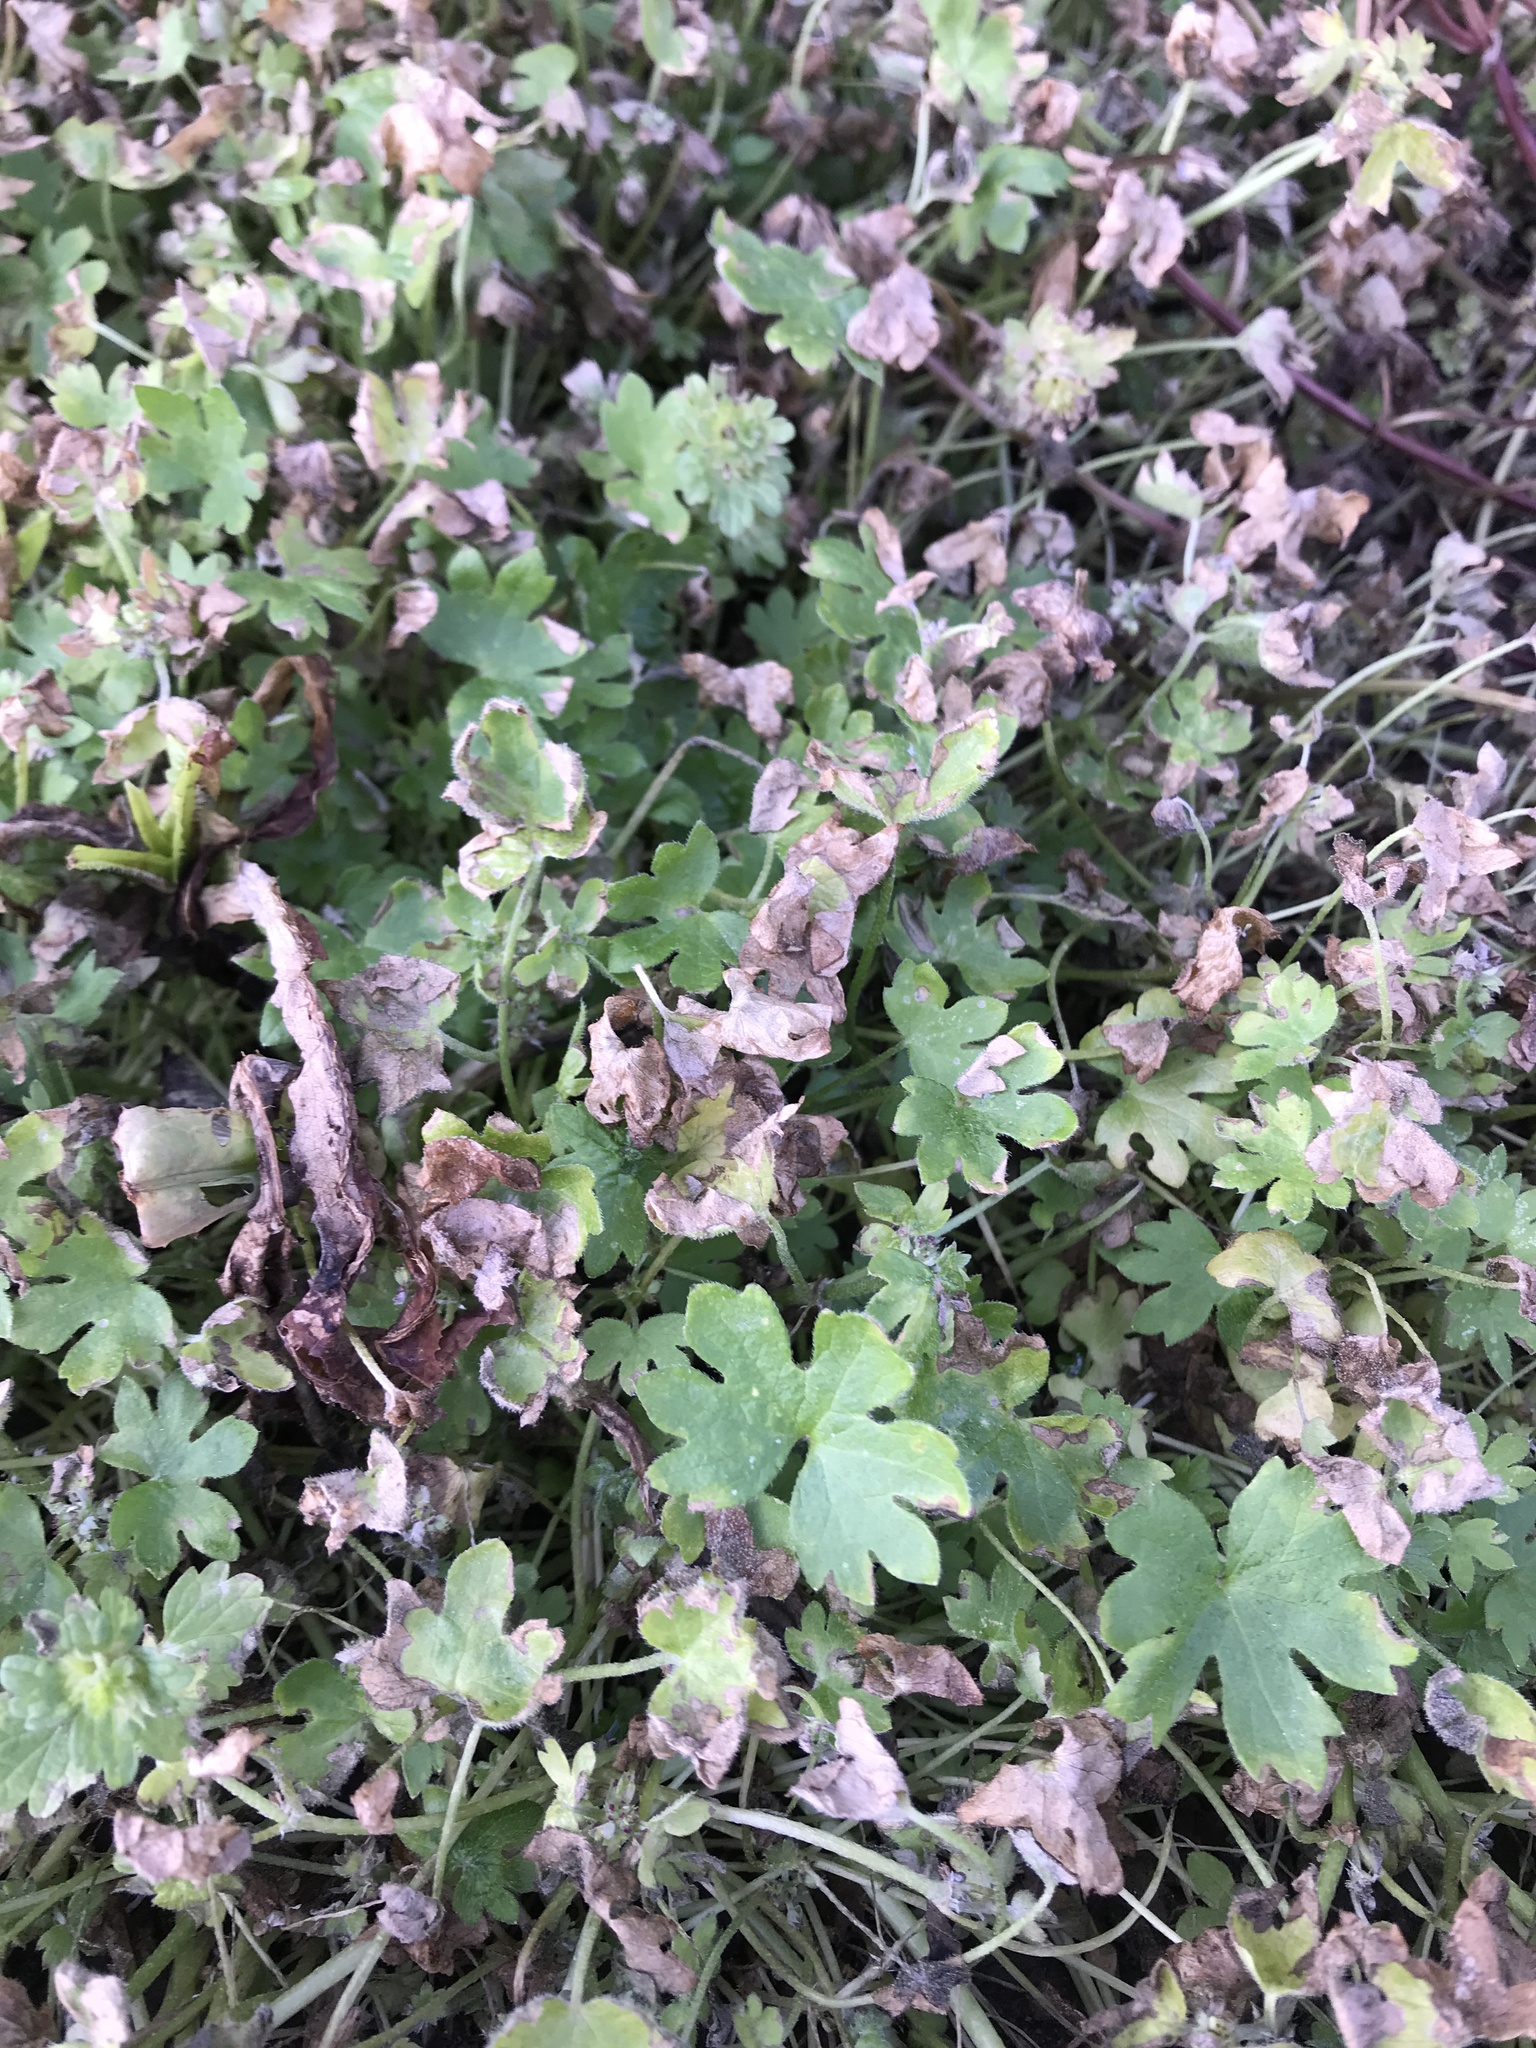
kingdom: Plantae
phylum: Tracheophyta
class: Magnoliopsida
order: Apiales
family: Apiaceae
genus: Bowlesia
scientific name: Bowlesia incana
